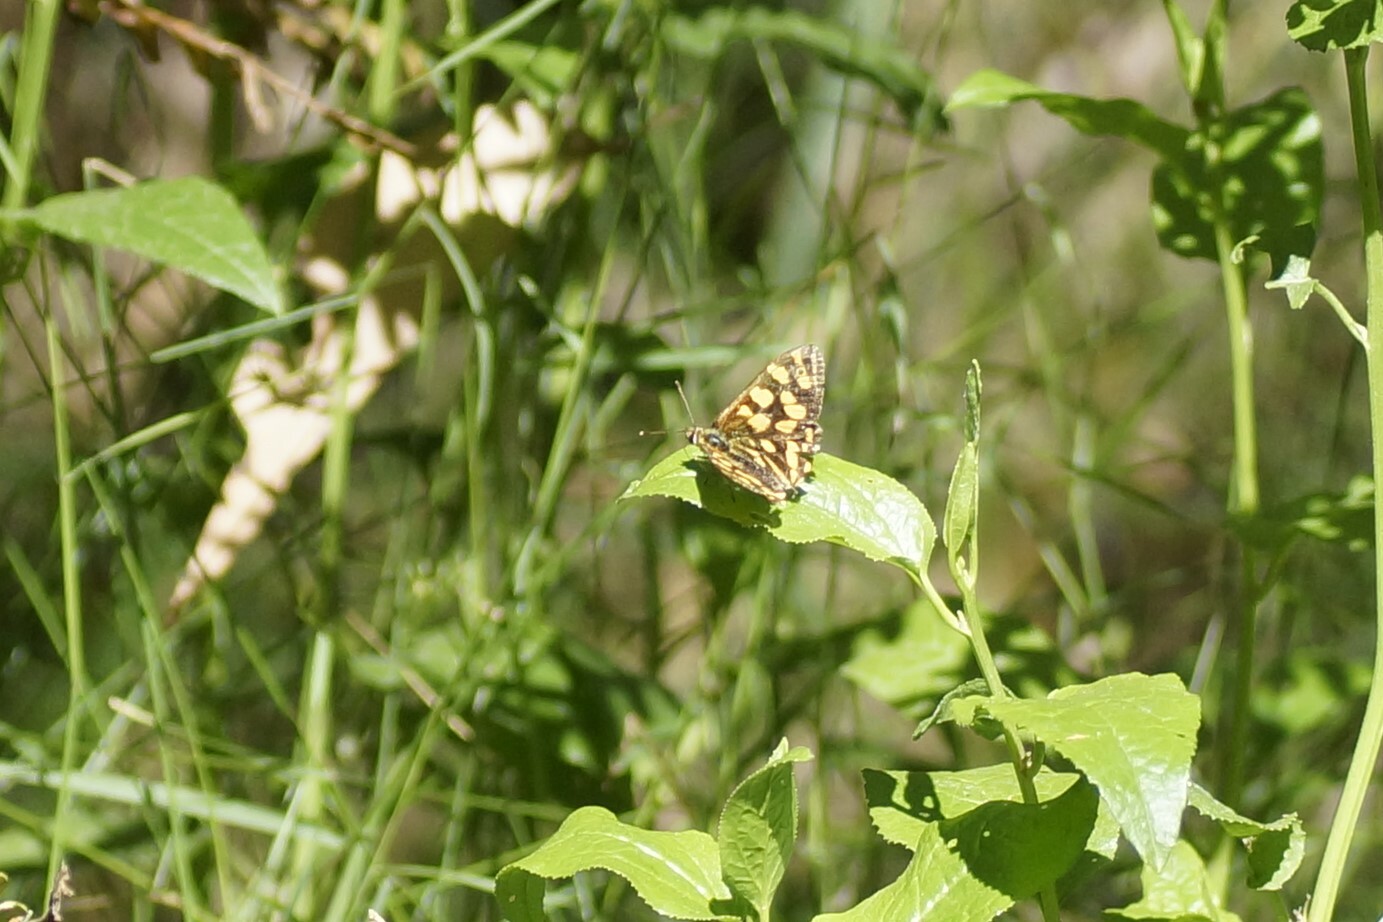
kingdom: Animalia
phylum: Arthropoda
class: Insecta
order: Lepidoptera
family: Nymphalidae
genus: Oreixenica
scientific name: Oreixenica kershawi
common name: Striped xenica
